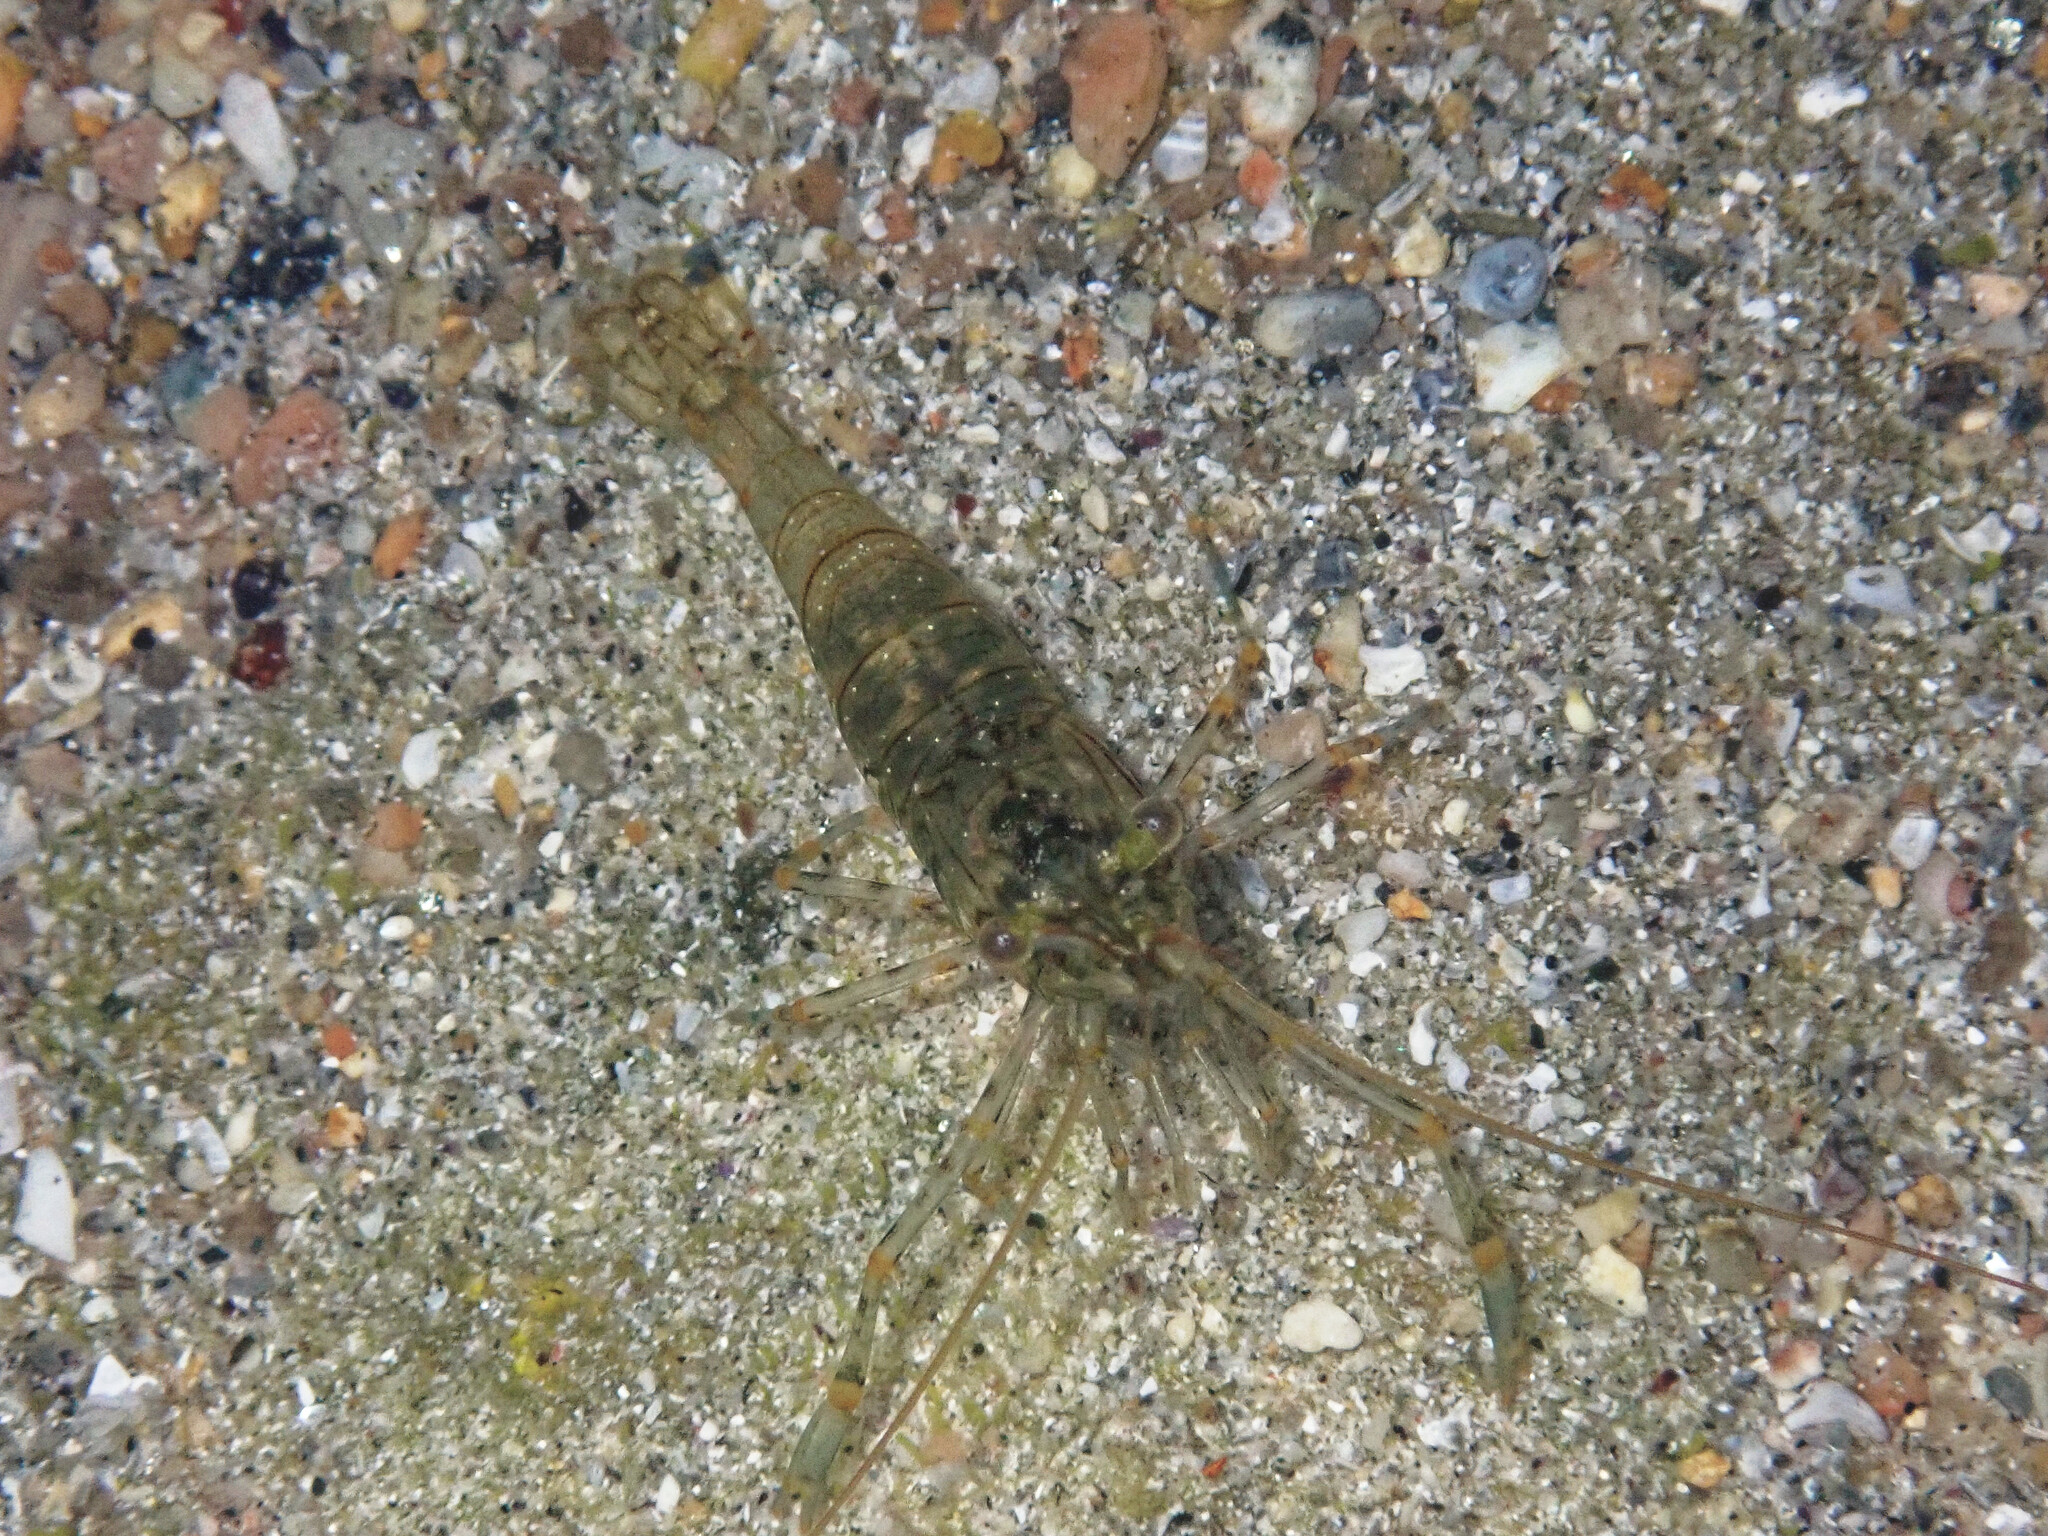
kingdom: Animalia
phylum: Arthropoda
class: Malacostraca
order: Decapoda
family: Palaemonidae
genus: Palaemon
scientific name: Palaemon elegans
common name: Grass prawm
